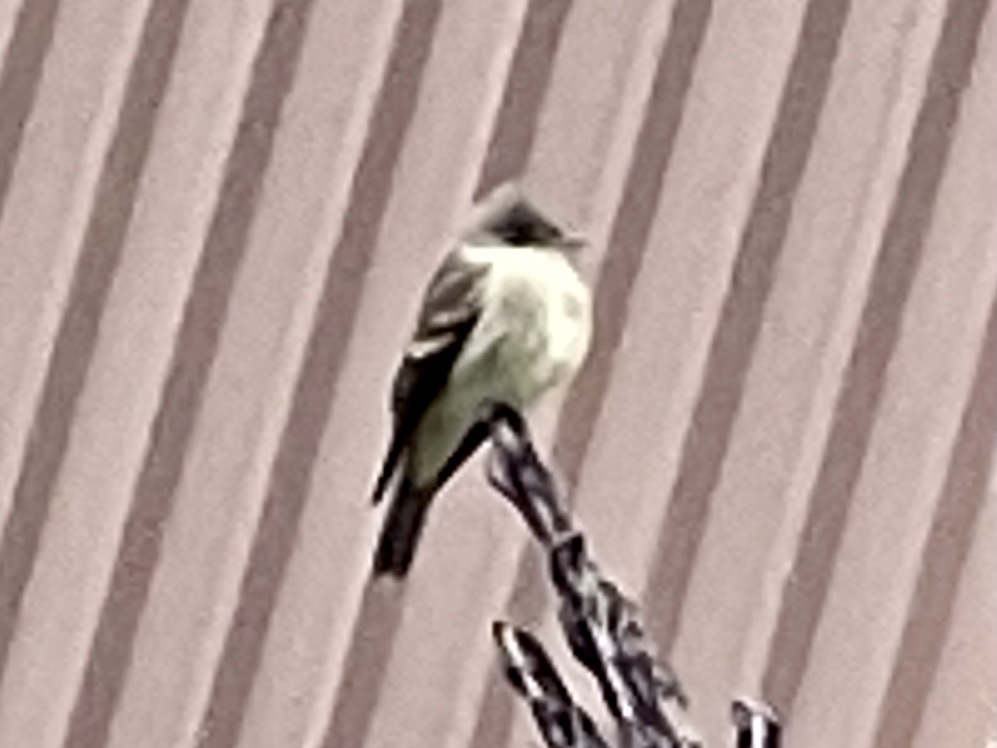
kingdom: Animalia
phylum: Chordata
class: Aves
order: Passeriformes
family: Tyrannidae
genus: Contopus
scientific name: Contopus sordidulus
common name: Western wood-pewee
